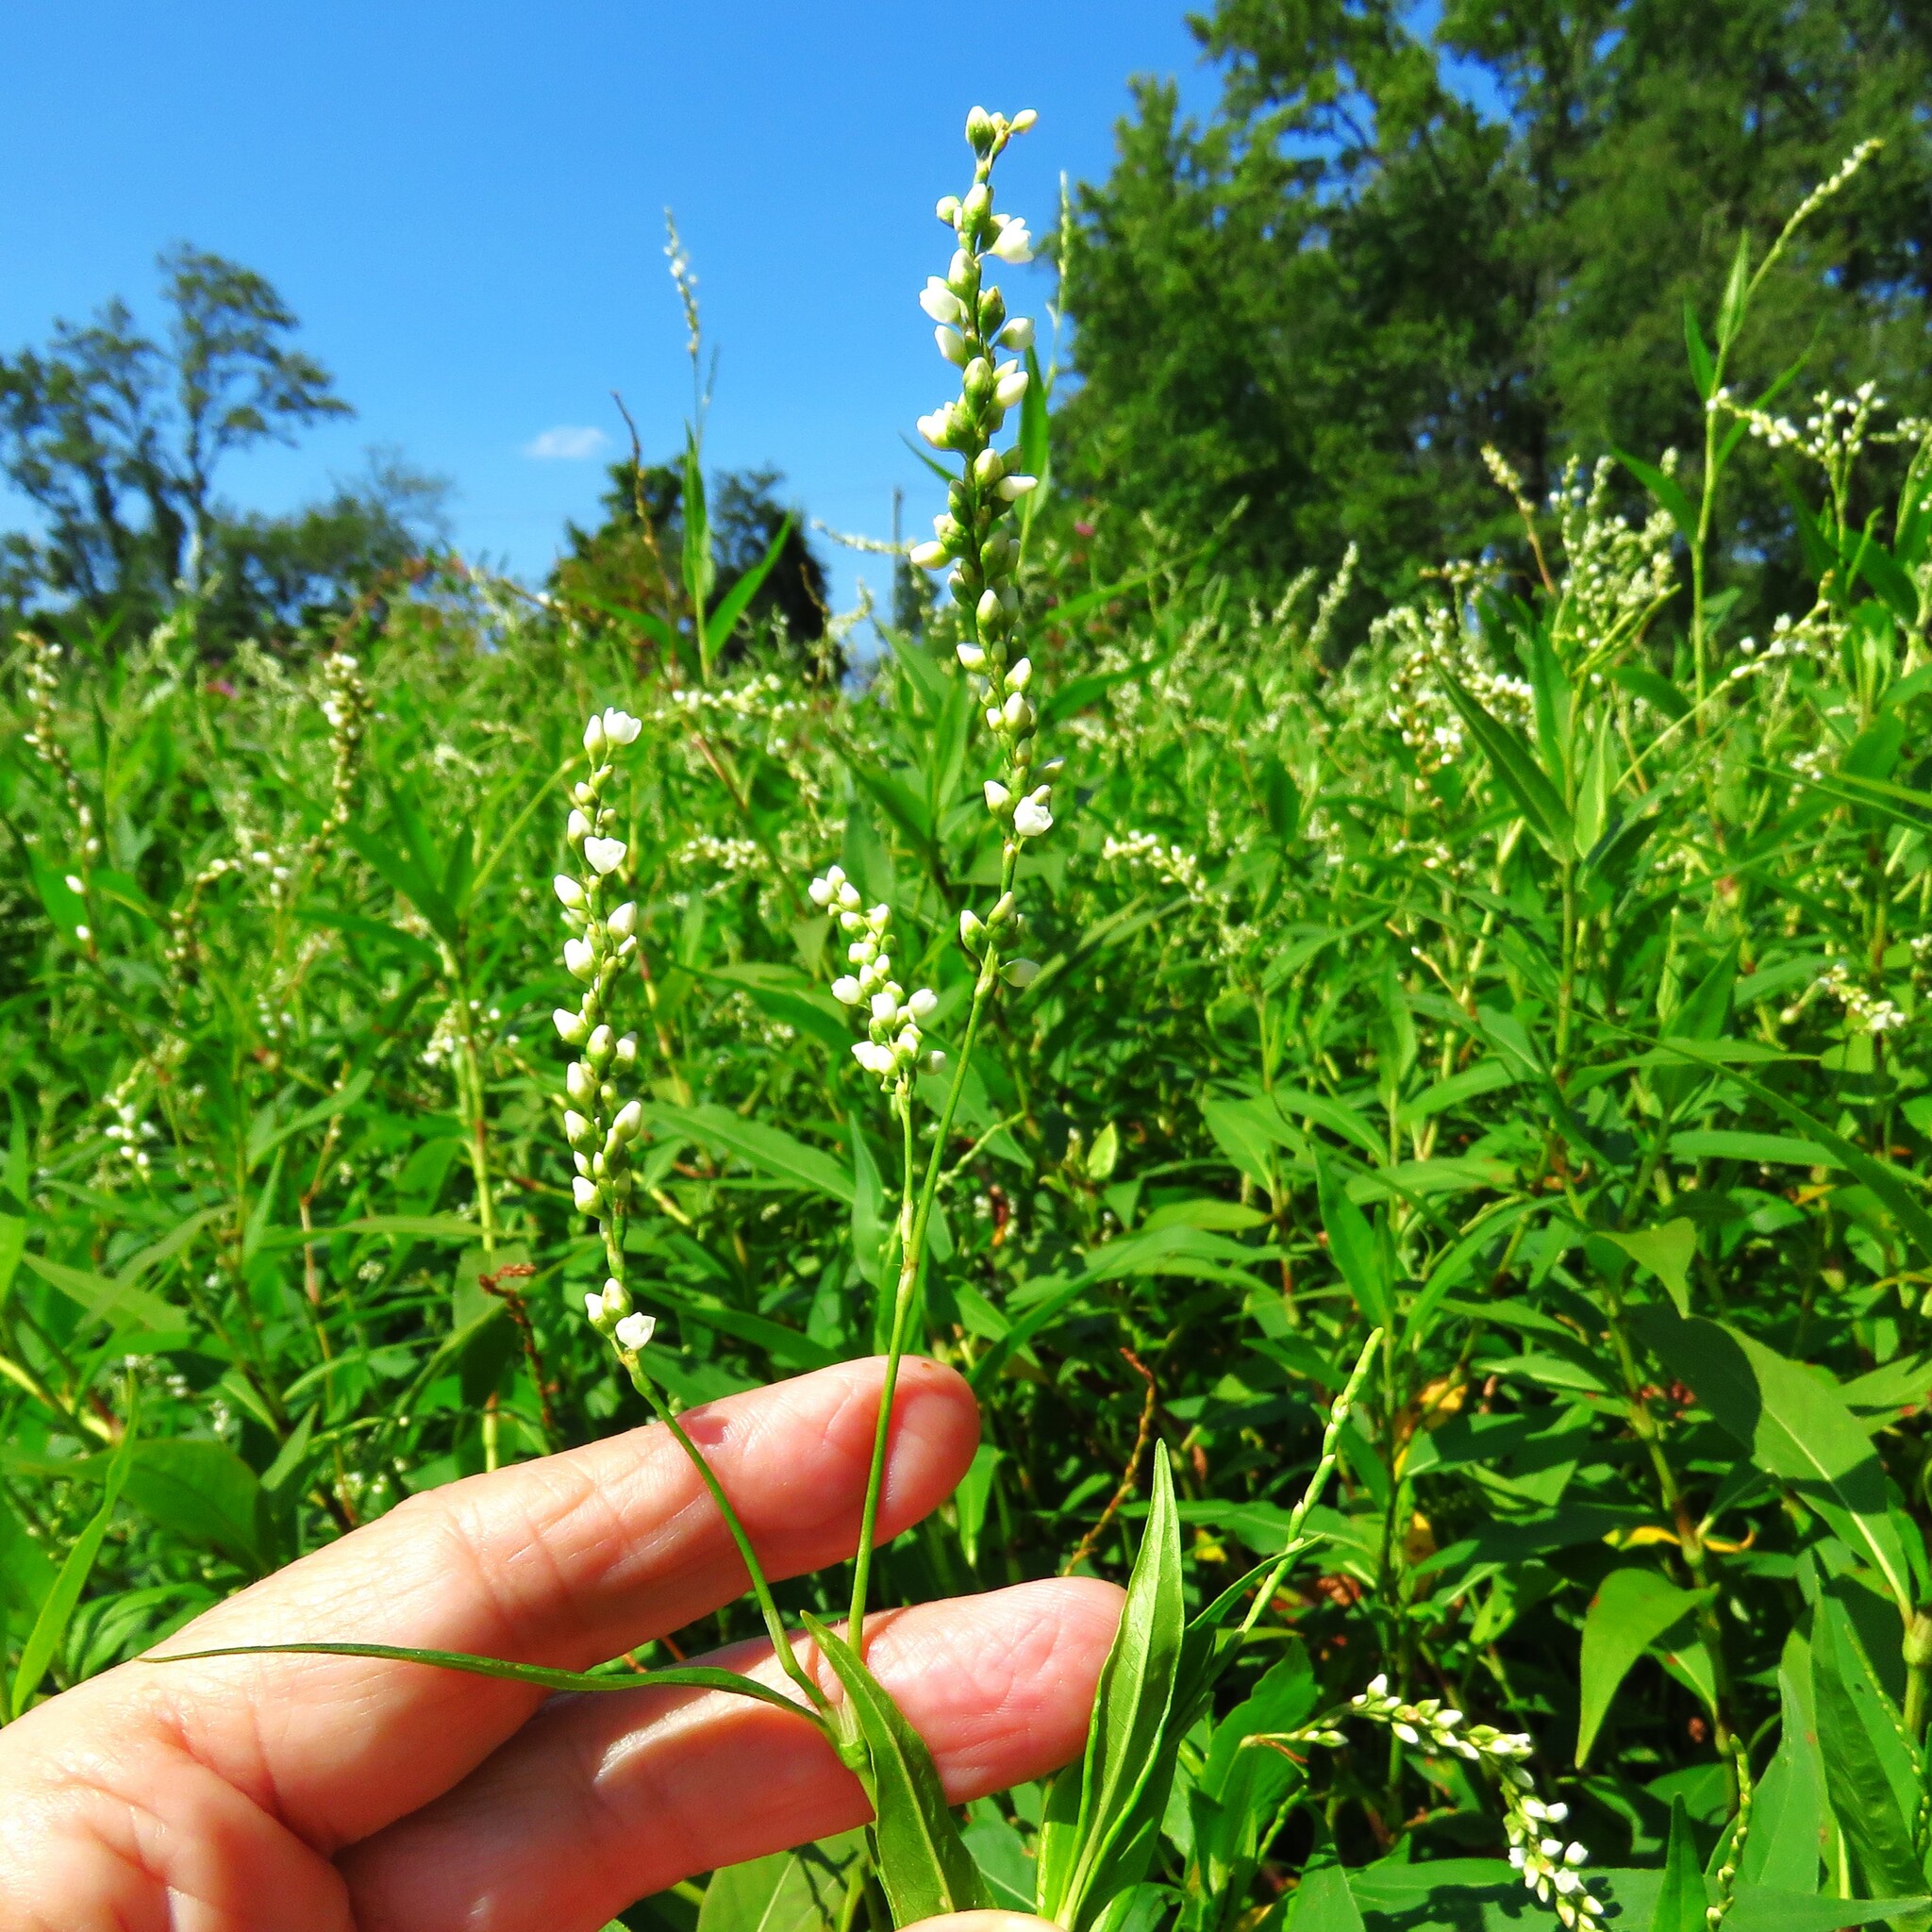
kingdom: Plantae
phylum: Tracheophyta
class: Magnoliopsida
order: Caryophyllales
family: Polygonaceae
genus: Persicaria
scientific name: Persicaria punctata
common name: Dotted smartweed
